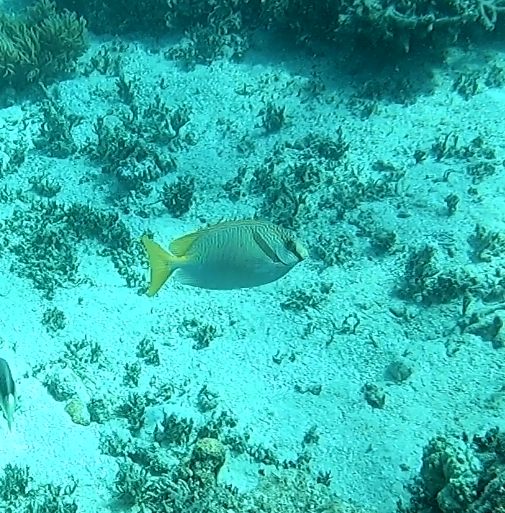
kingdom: Animalia
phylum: Chordata
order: Perciformes
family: Siganidae
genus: Siganus
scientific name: Siganus doliatus
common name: Barred spinefoot
